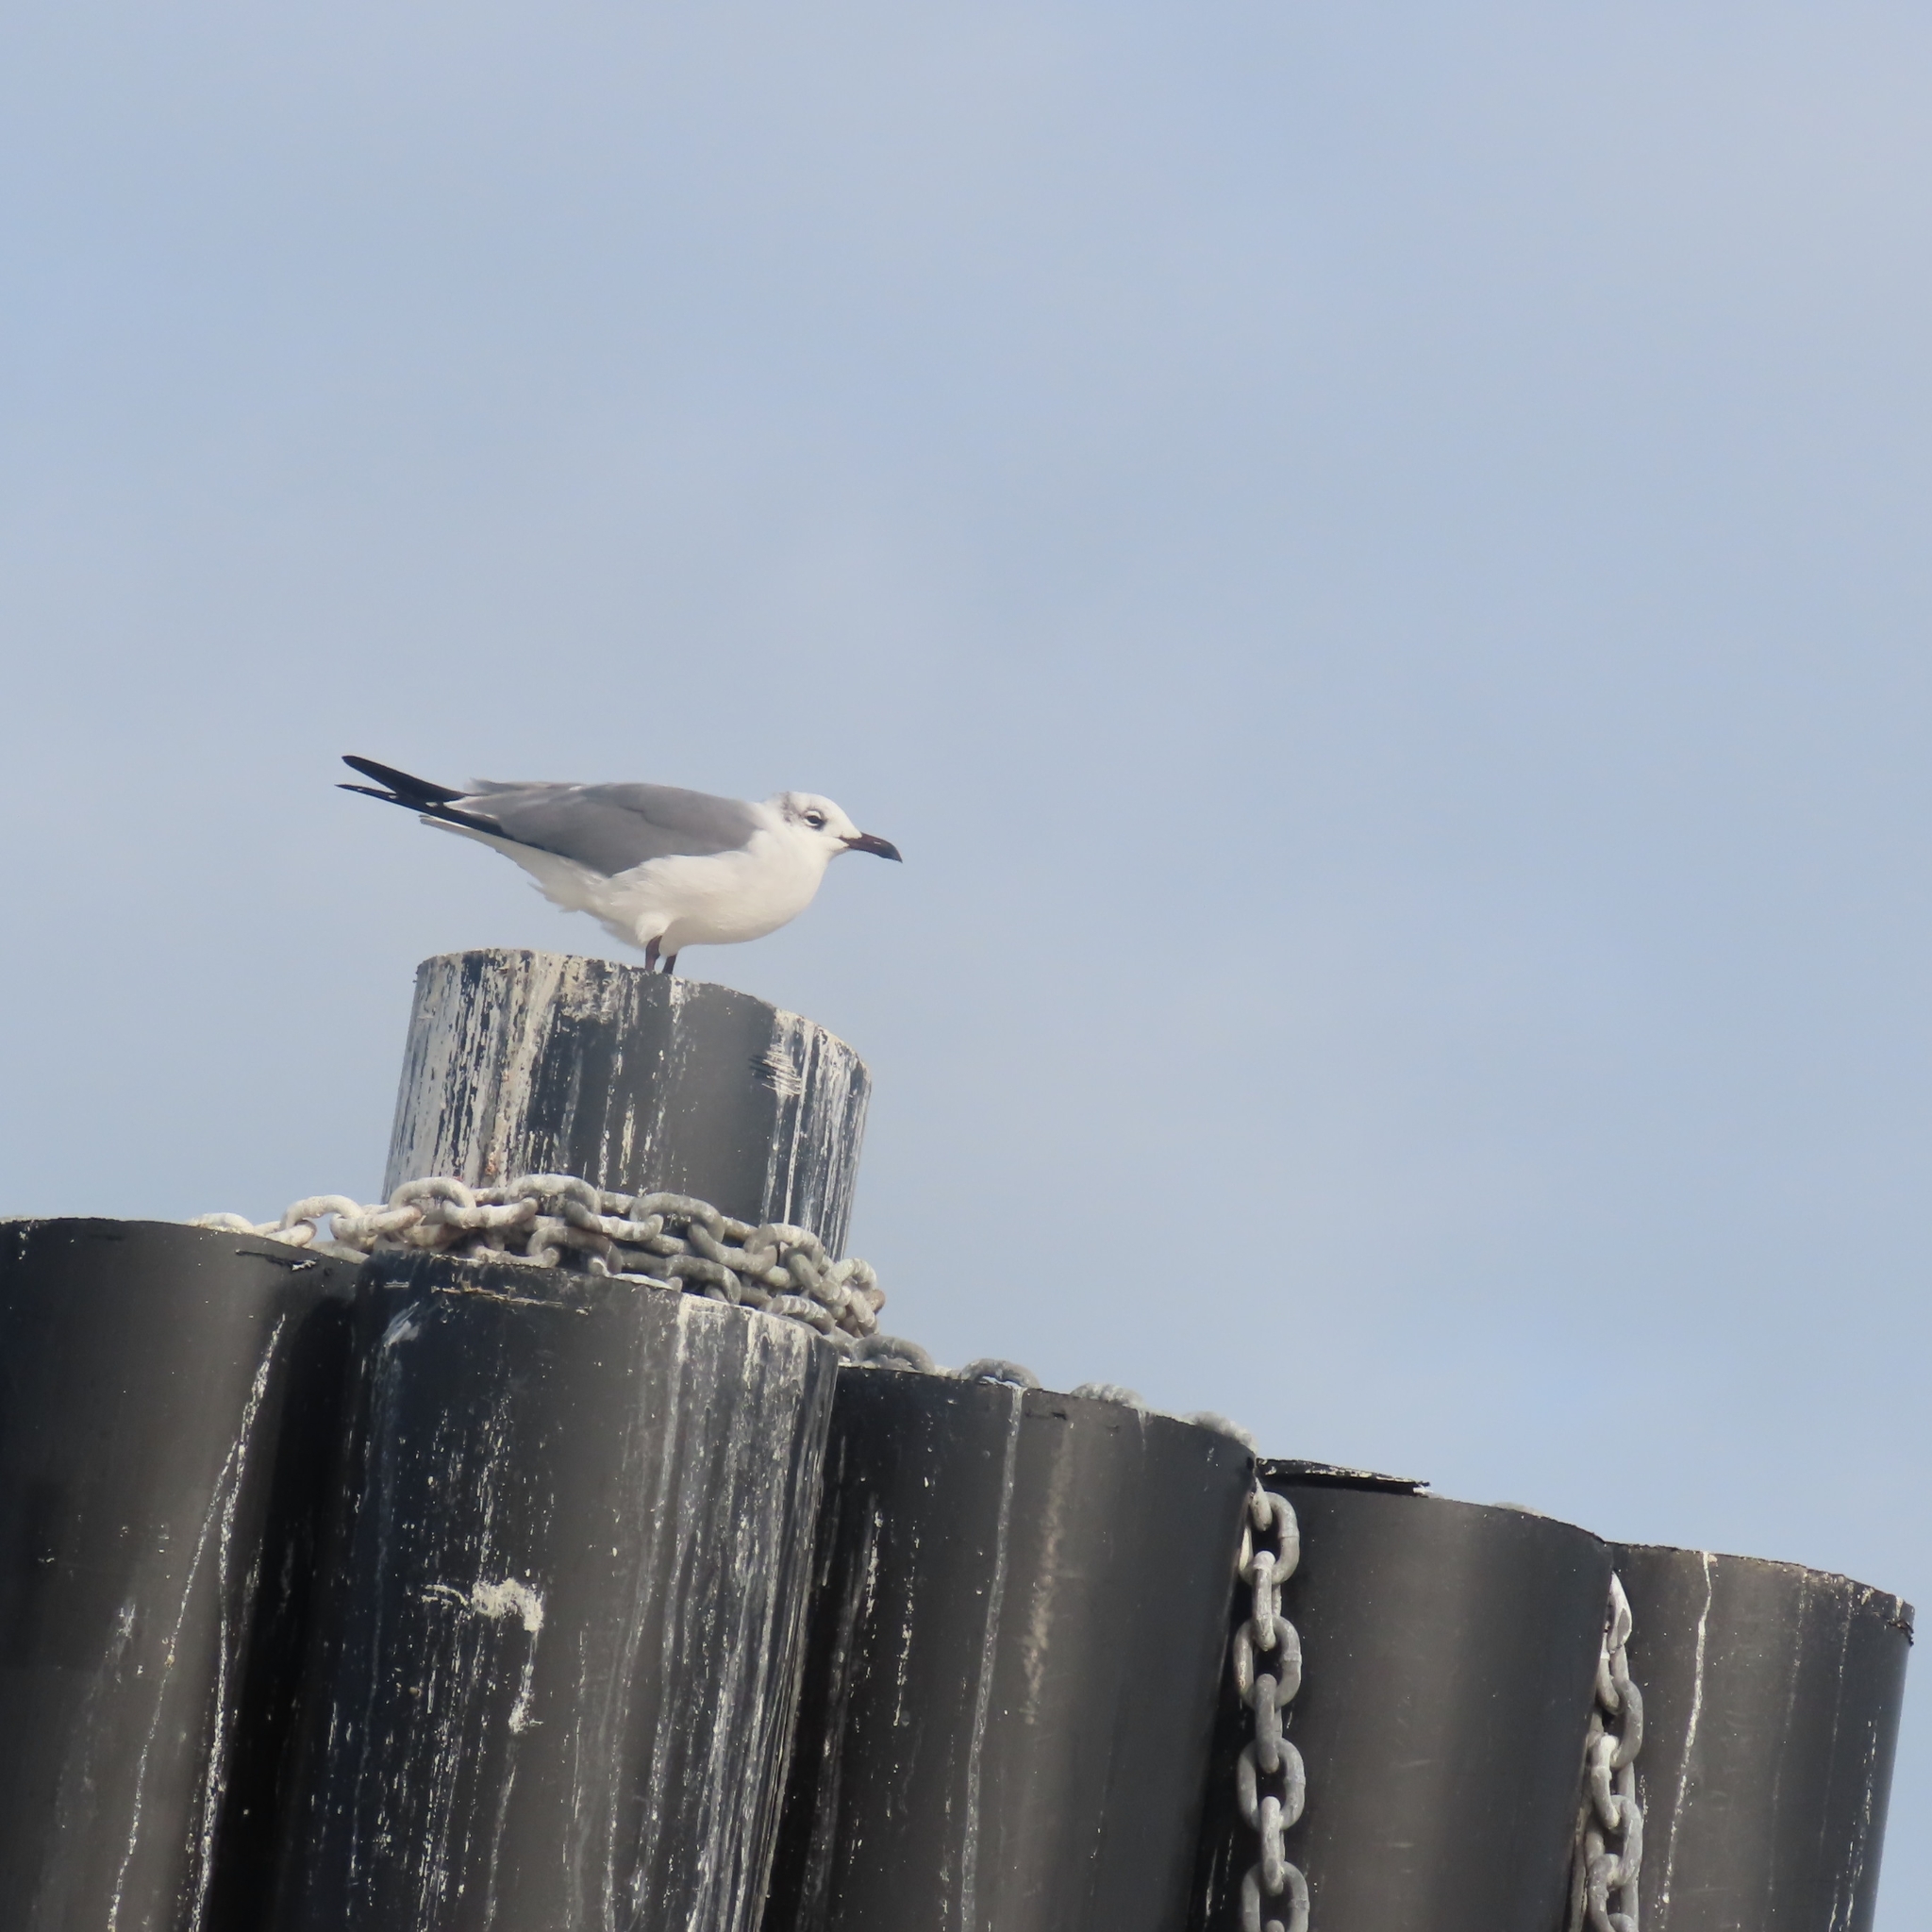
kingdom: Animalia
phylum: Chordata
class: Aves
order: Charadriiformes
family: Laridae
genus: Leucophaeus
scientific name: Leucophaeus atricilla
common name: Laughing gull
